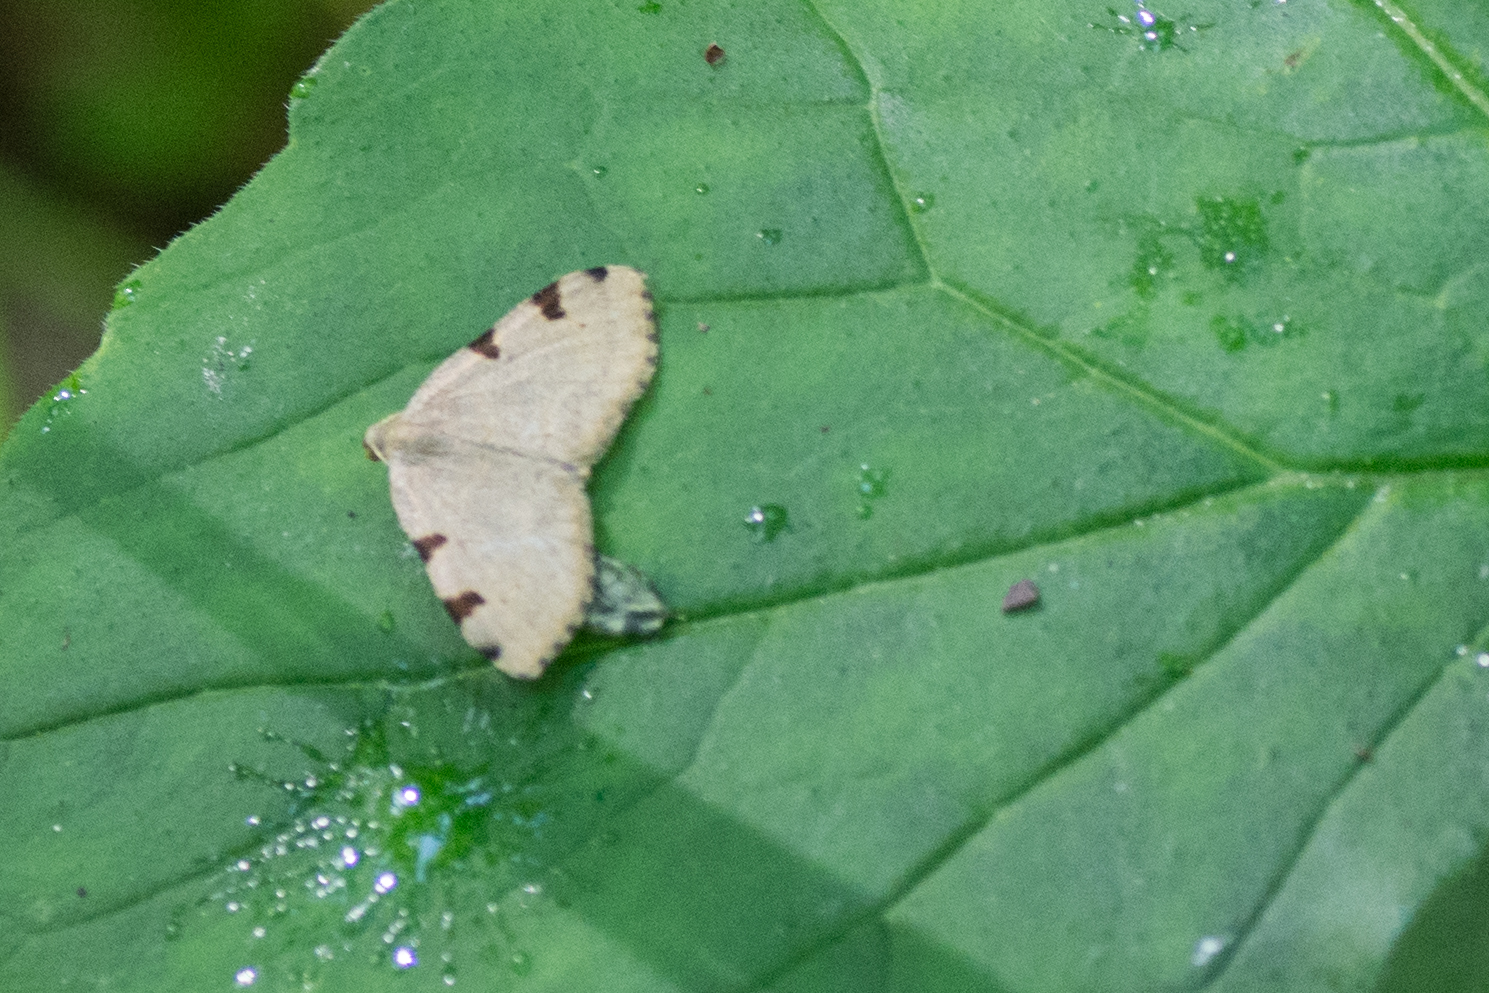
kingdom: Animalia
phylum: Arthropoda
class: Insecta
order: Lepidoptera
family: Geometridae
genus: Heterophleps
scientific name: Heterophleps triguttaria
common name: Three-spotted fillip
